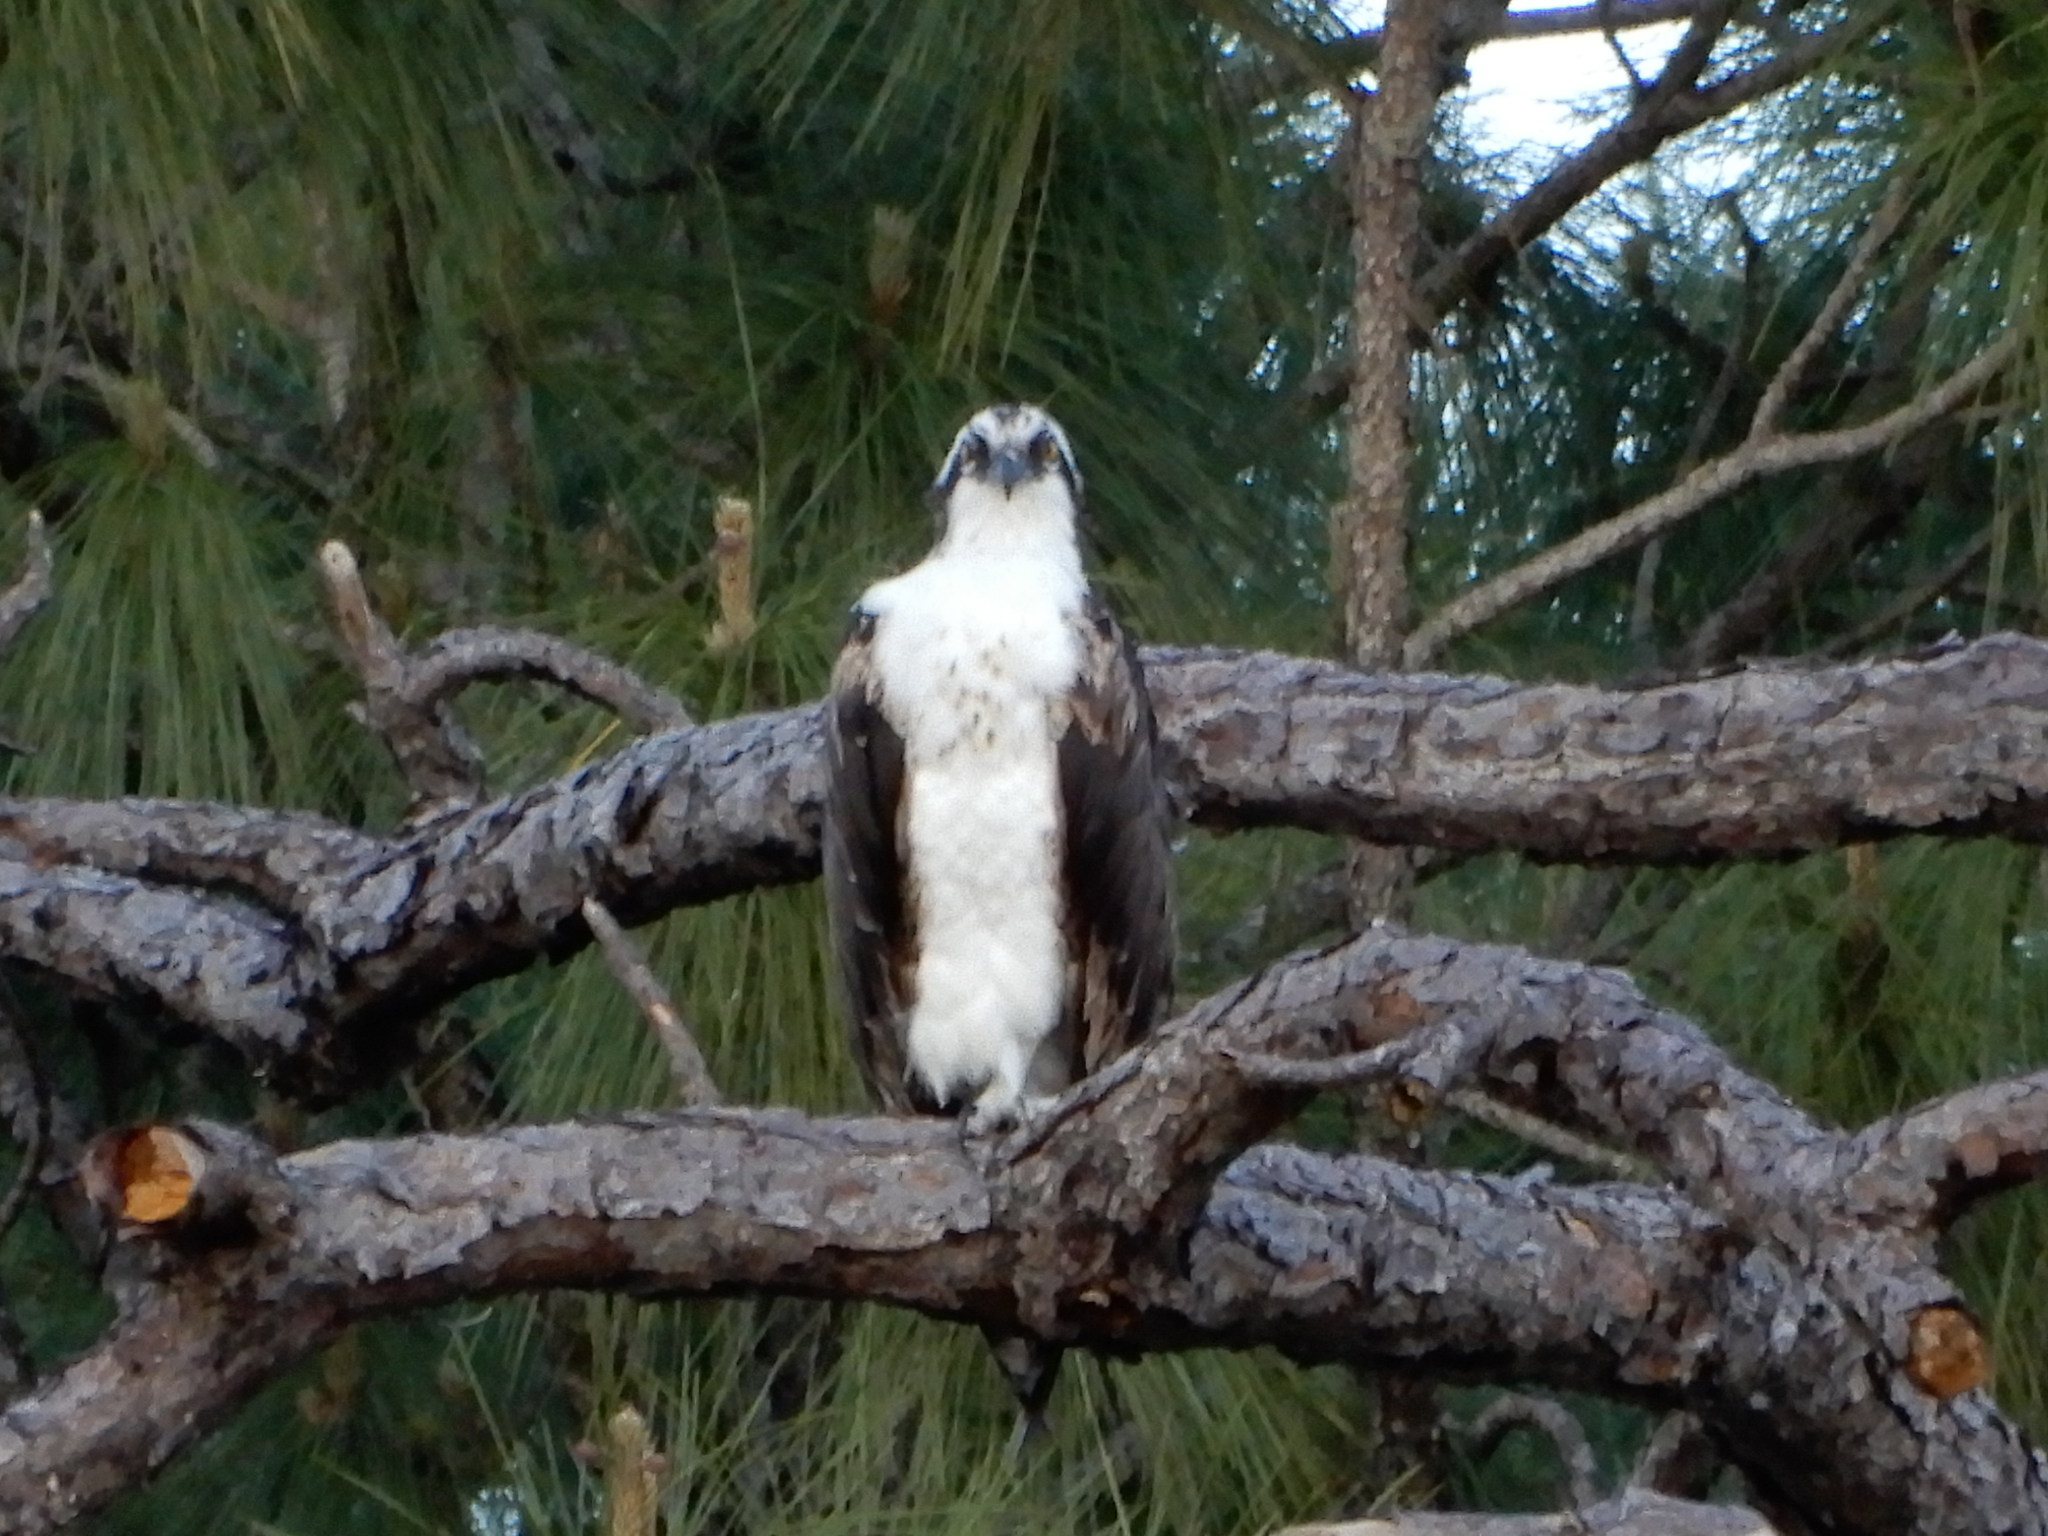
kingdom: Animalia
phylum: Chordata
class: Aves
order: Accipitriformes
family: Pandionidae
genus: Pandion
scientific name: Pandion haliaetus
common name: Osprey
